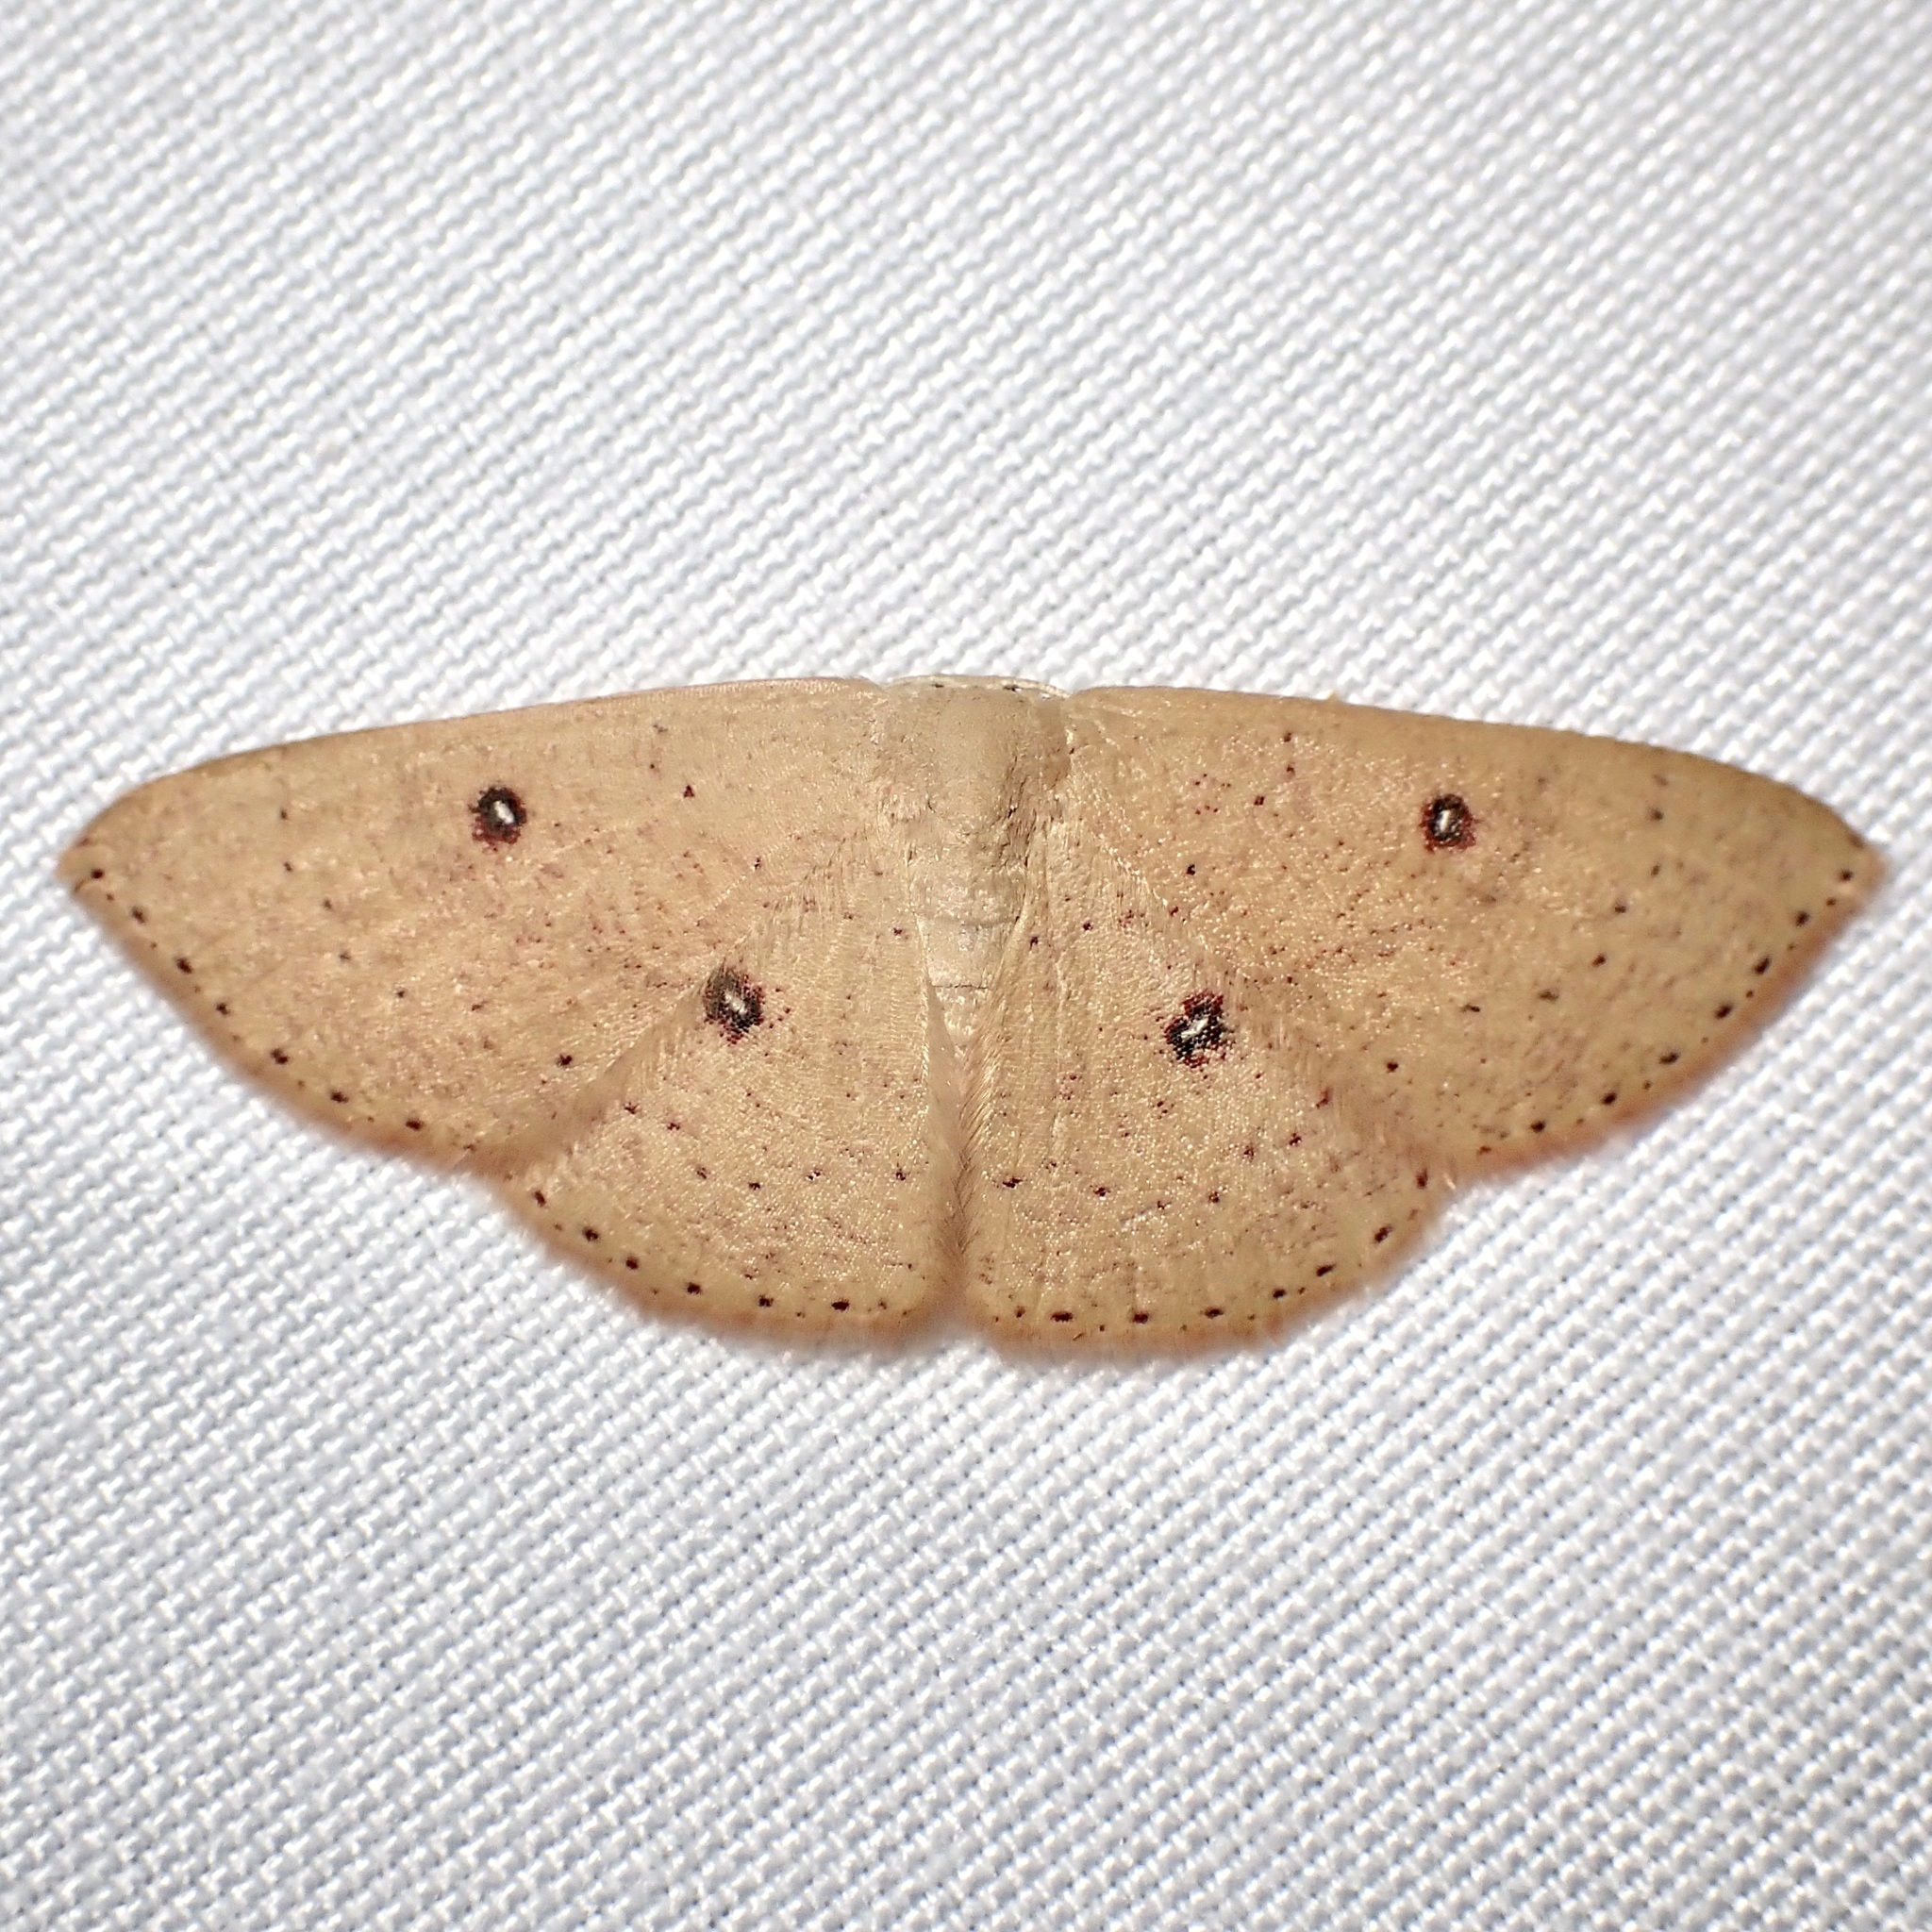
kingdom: Animalia
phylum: Arthropoda
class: Insecta
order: Lepidoptera
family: Geometridae
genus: Cyclophora
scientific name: Cyclophora dataria
